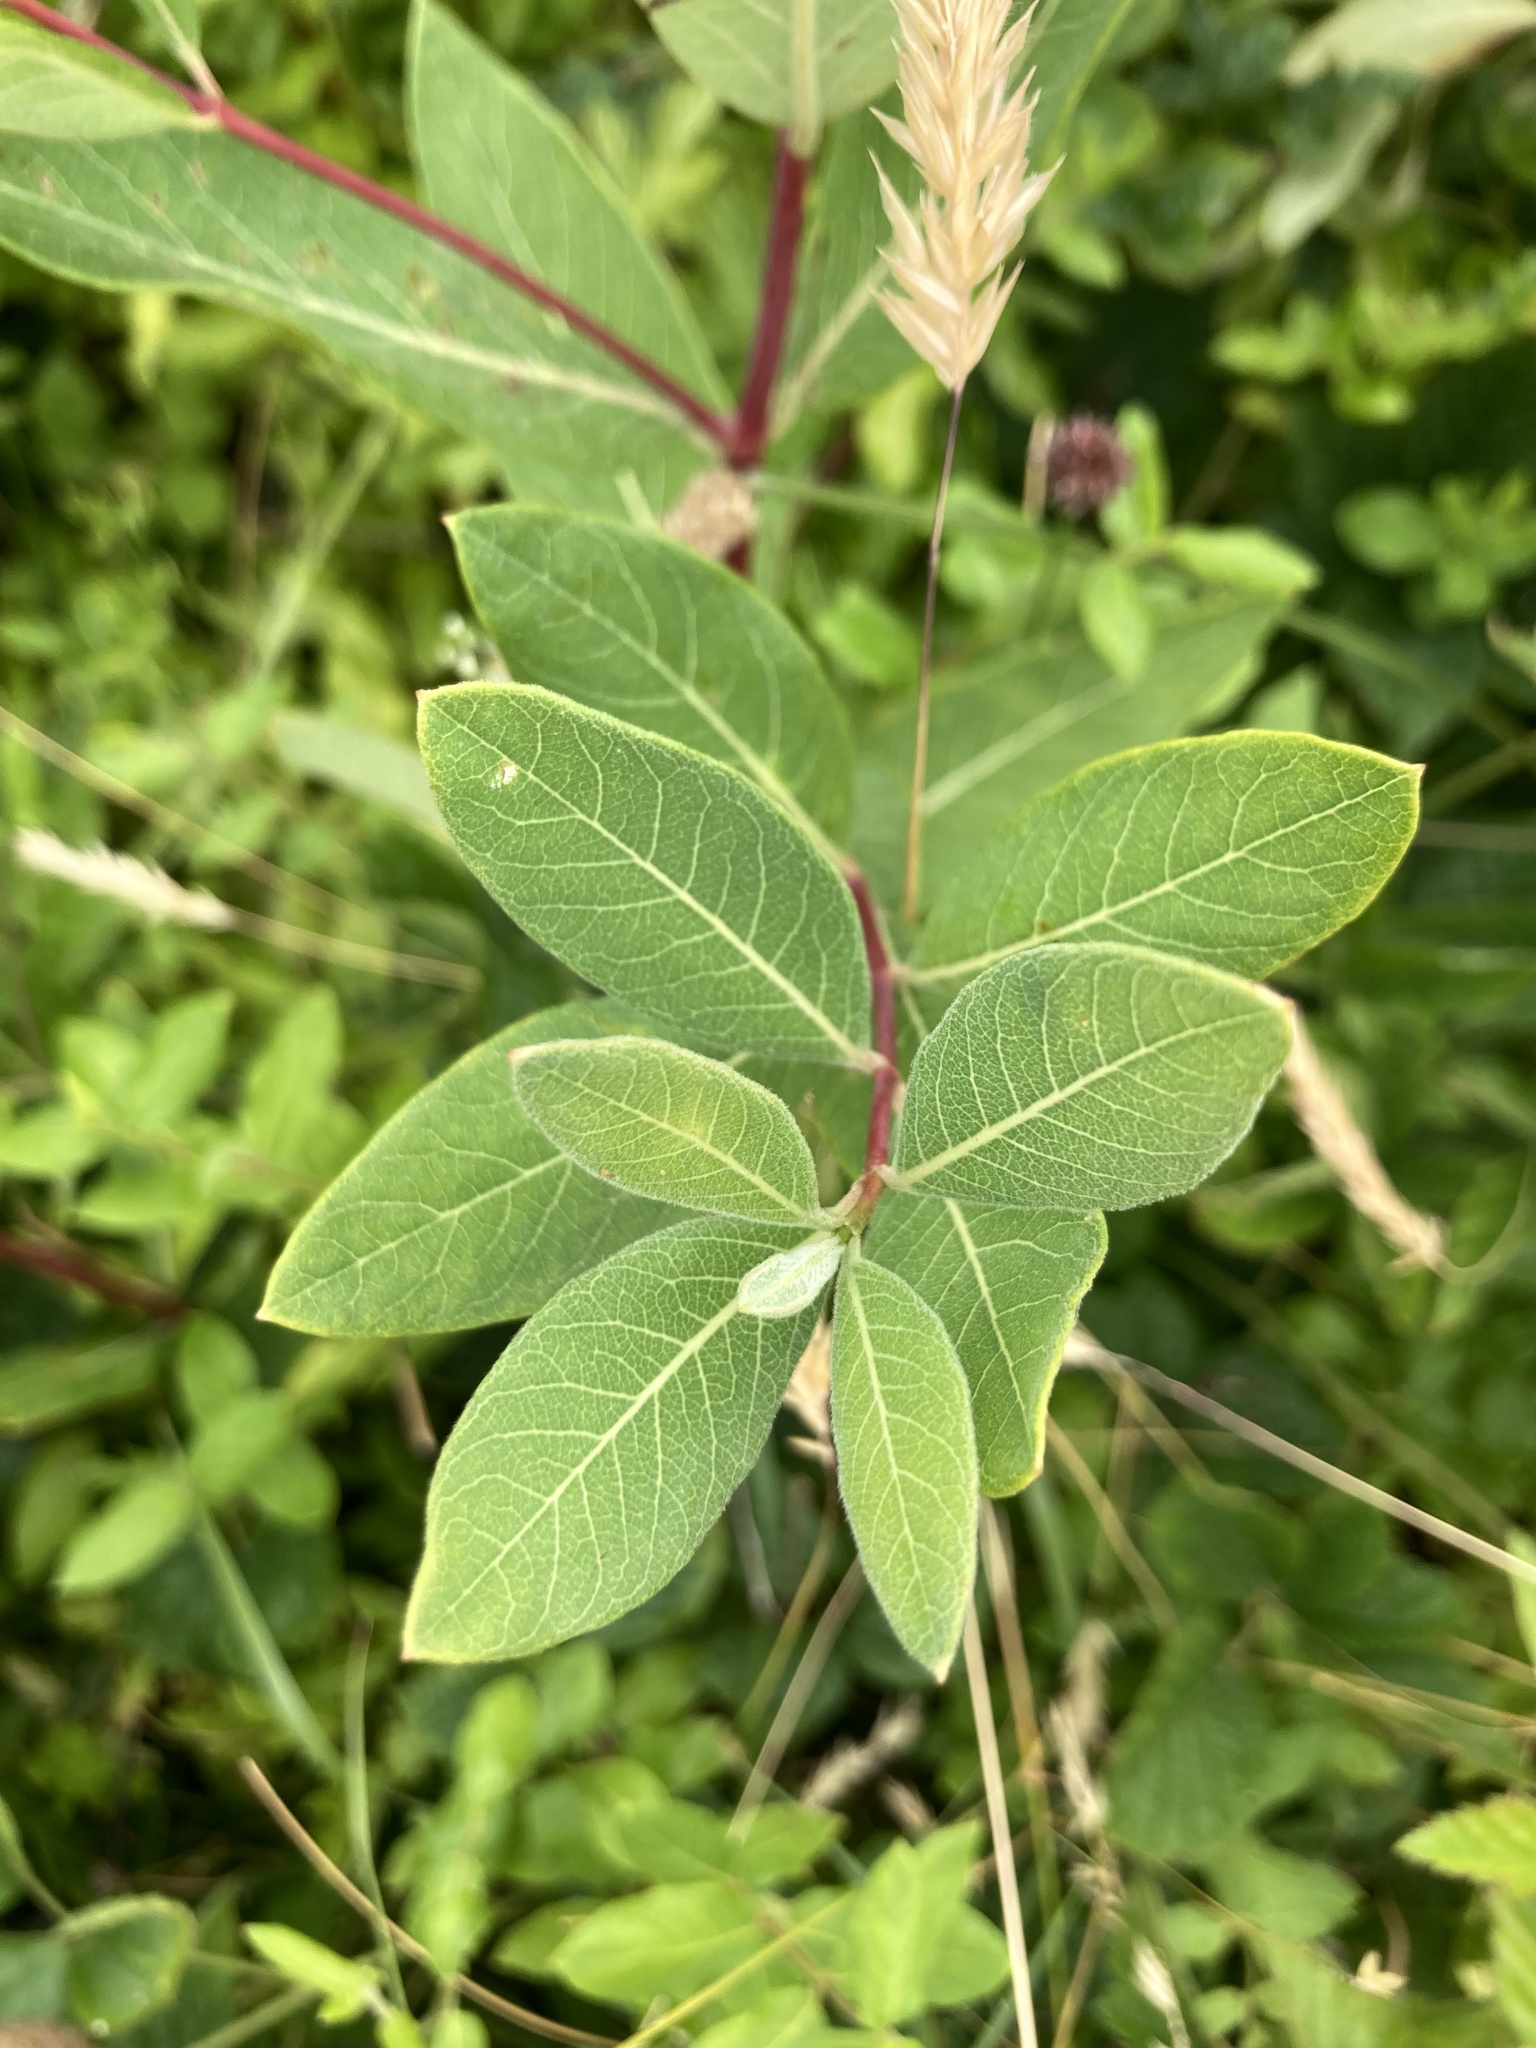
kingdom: Plantae
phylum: Tracheophyta
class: Magnoliopsida
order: Gentianales
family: Apocynaceae
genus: Apocynum
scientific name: Apocynum cannabinum
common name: Hemp dogbane
